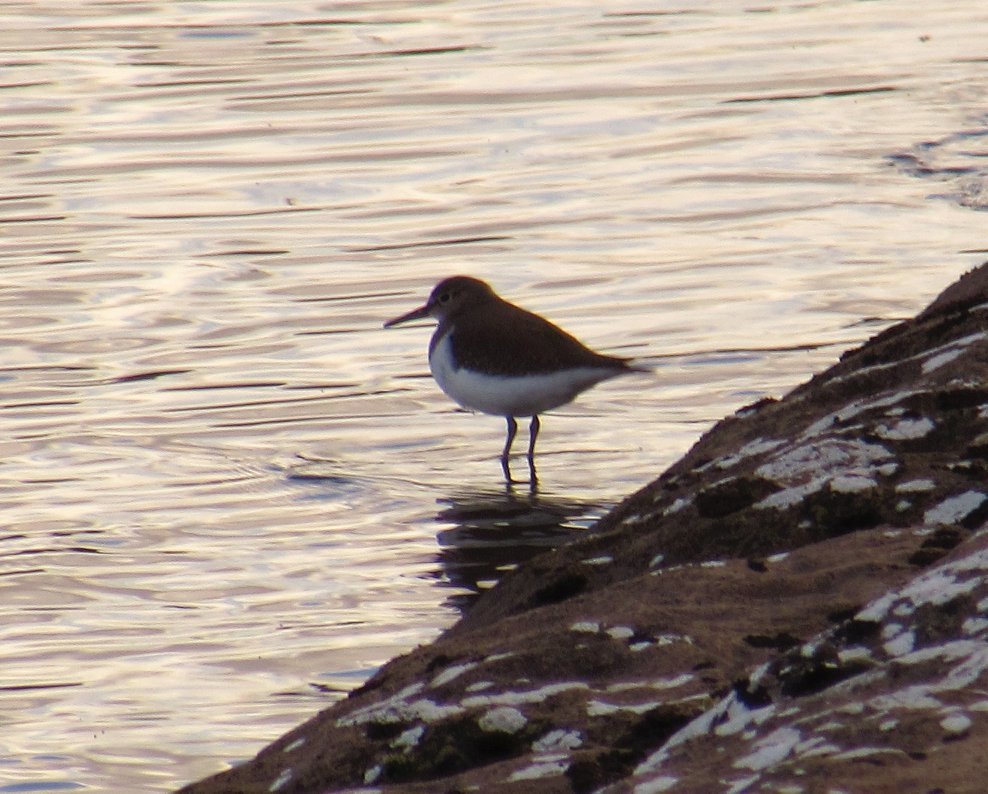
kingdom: Animalia
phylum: Chordata
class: Aves
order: Charadriiformes
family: Scolopacidae
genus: Actitis
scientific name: Actitis hypoleucos
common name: Common sandpiper
